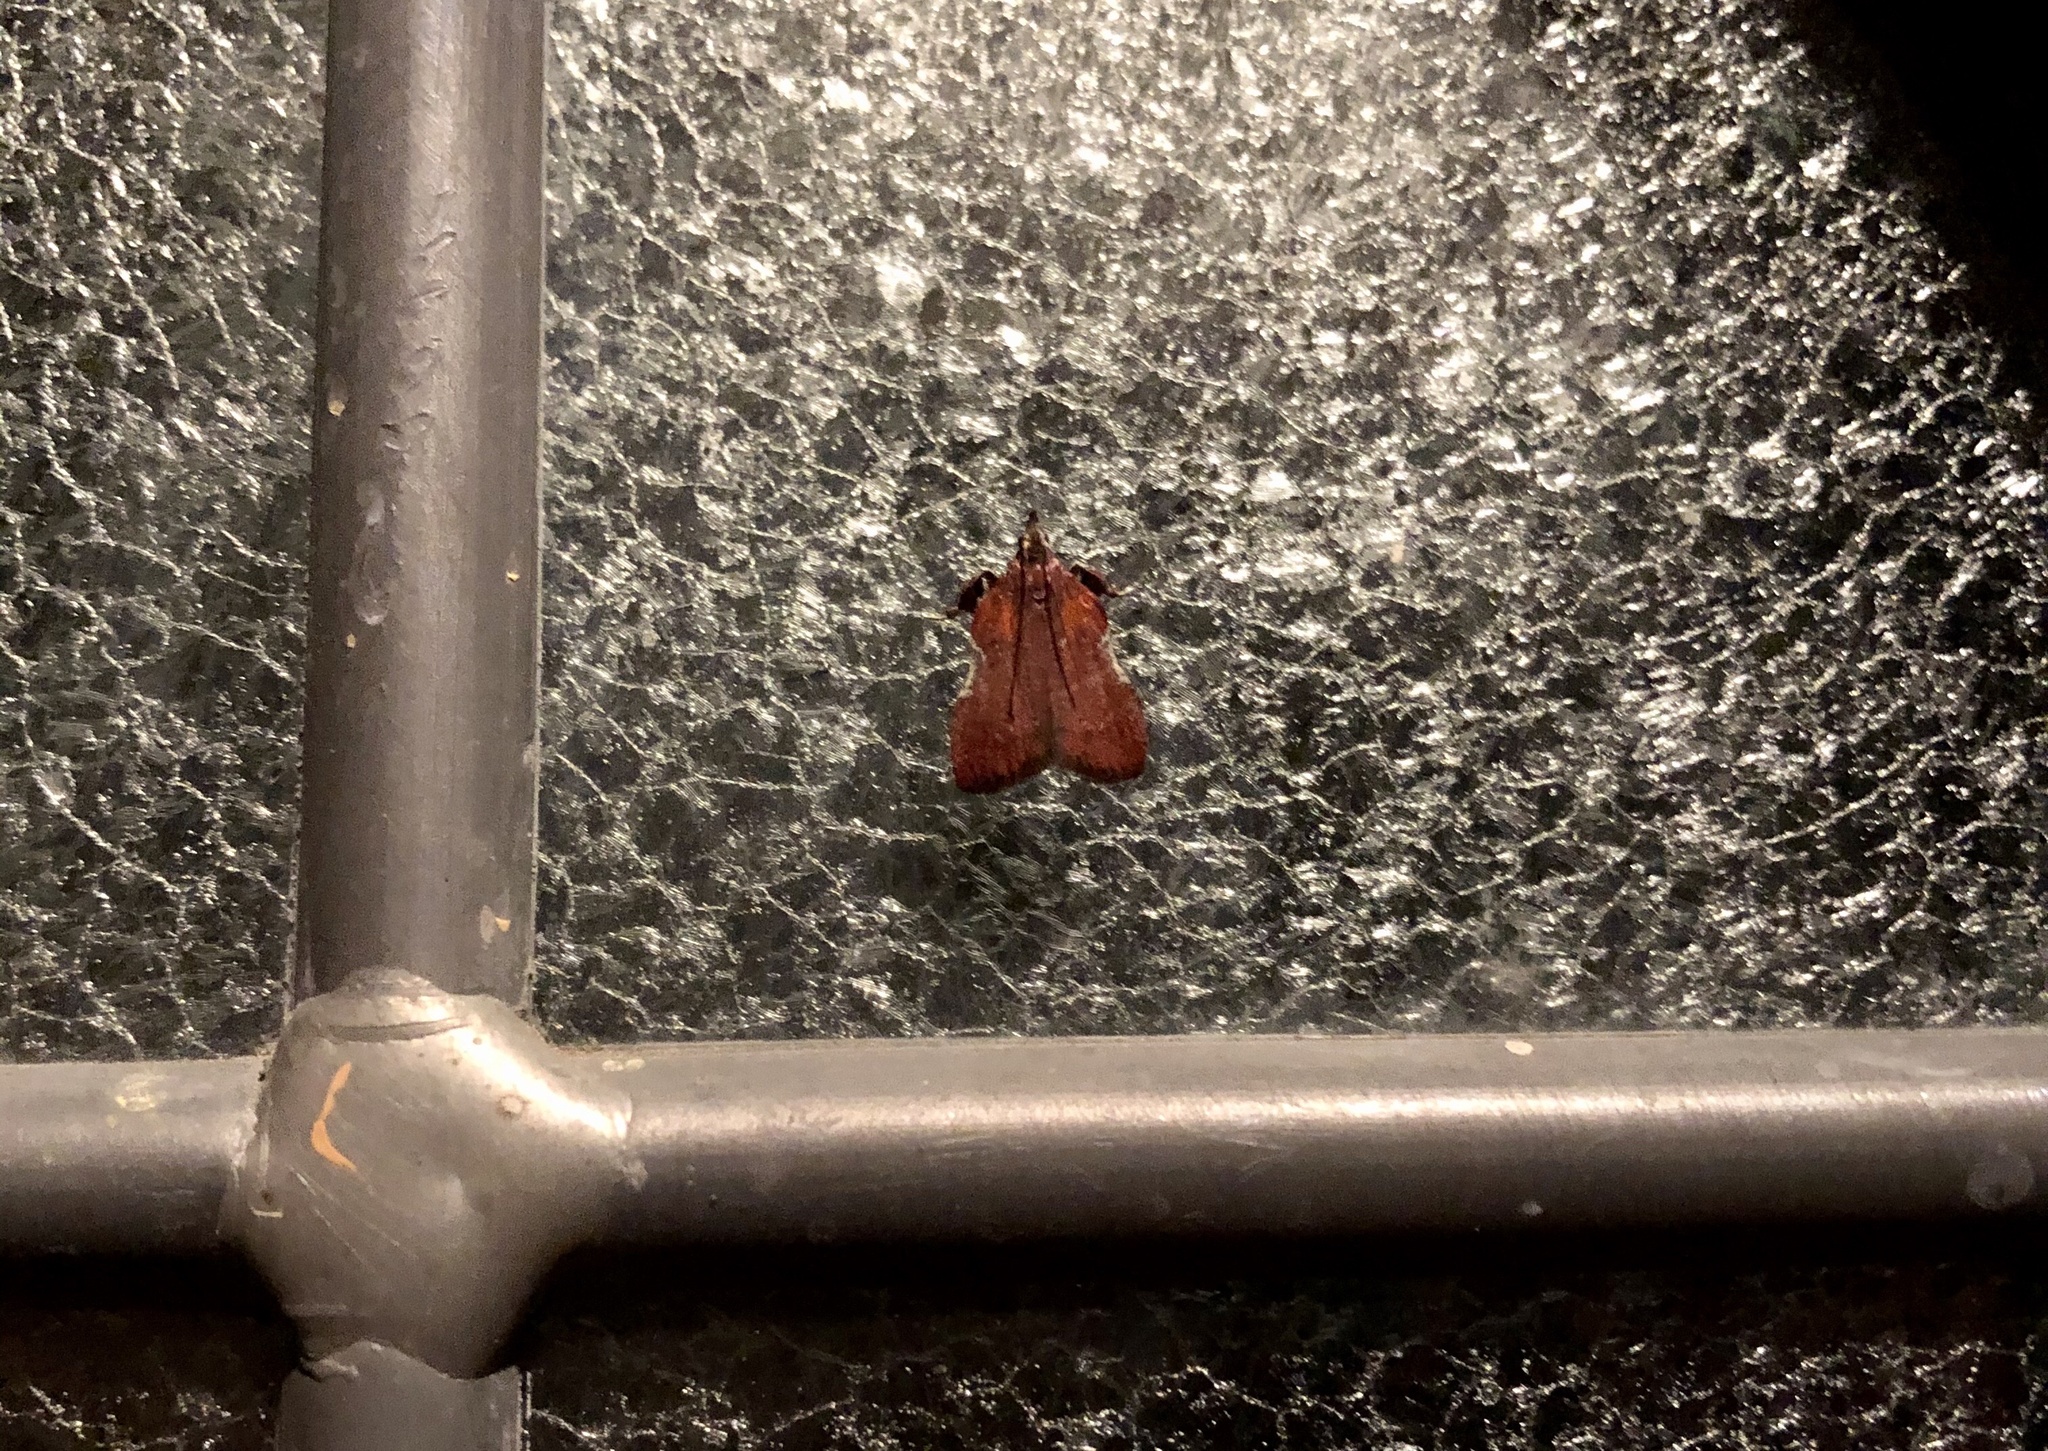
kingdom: Animalia
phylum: Arthropoda
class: Insecta
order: Lepidoptera
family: Pyralidae
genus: Galasa
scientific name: Galasa nigrinodis
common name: Boxwood leaftier moth
